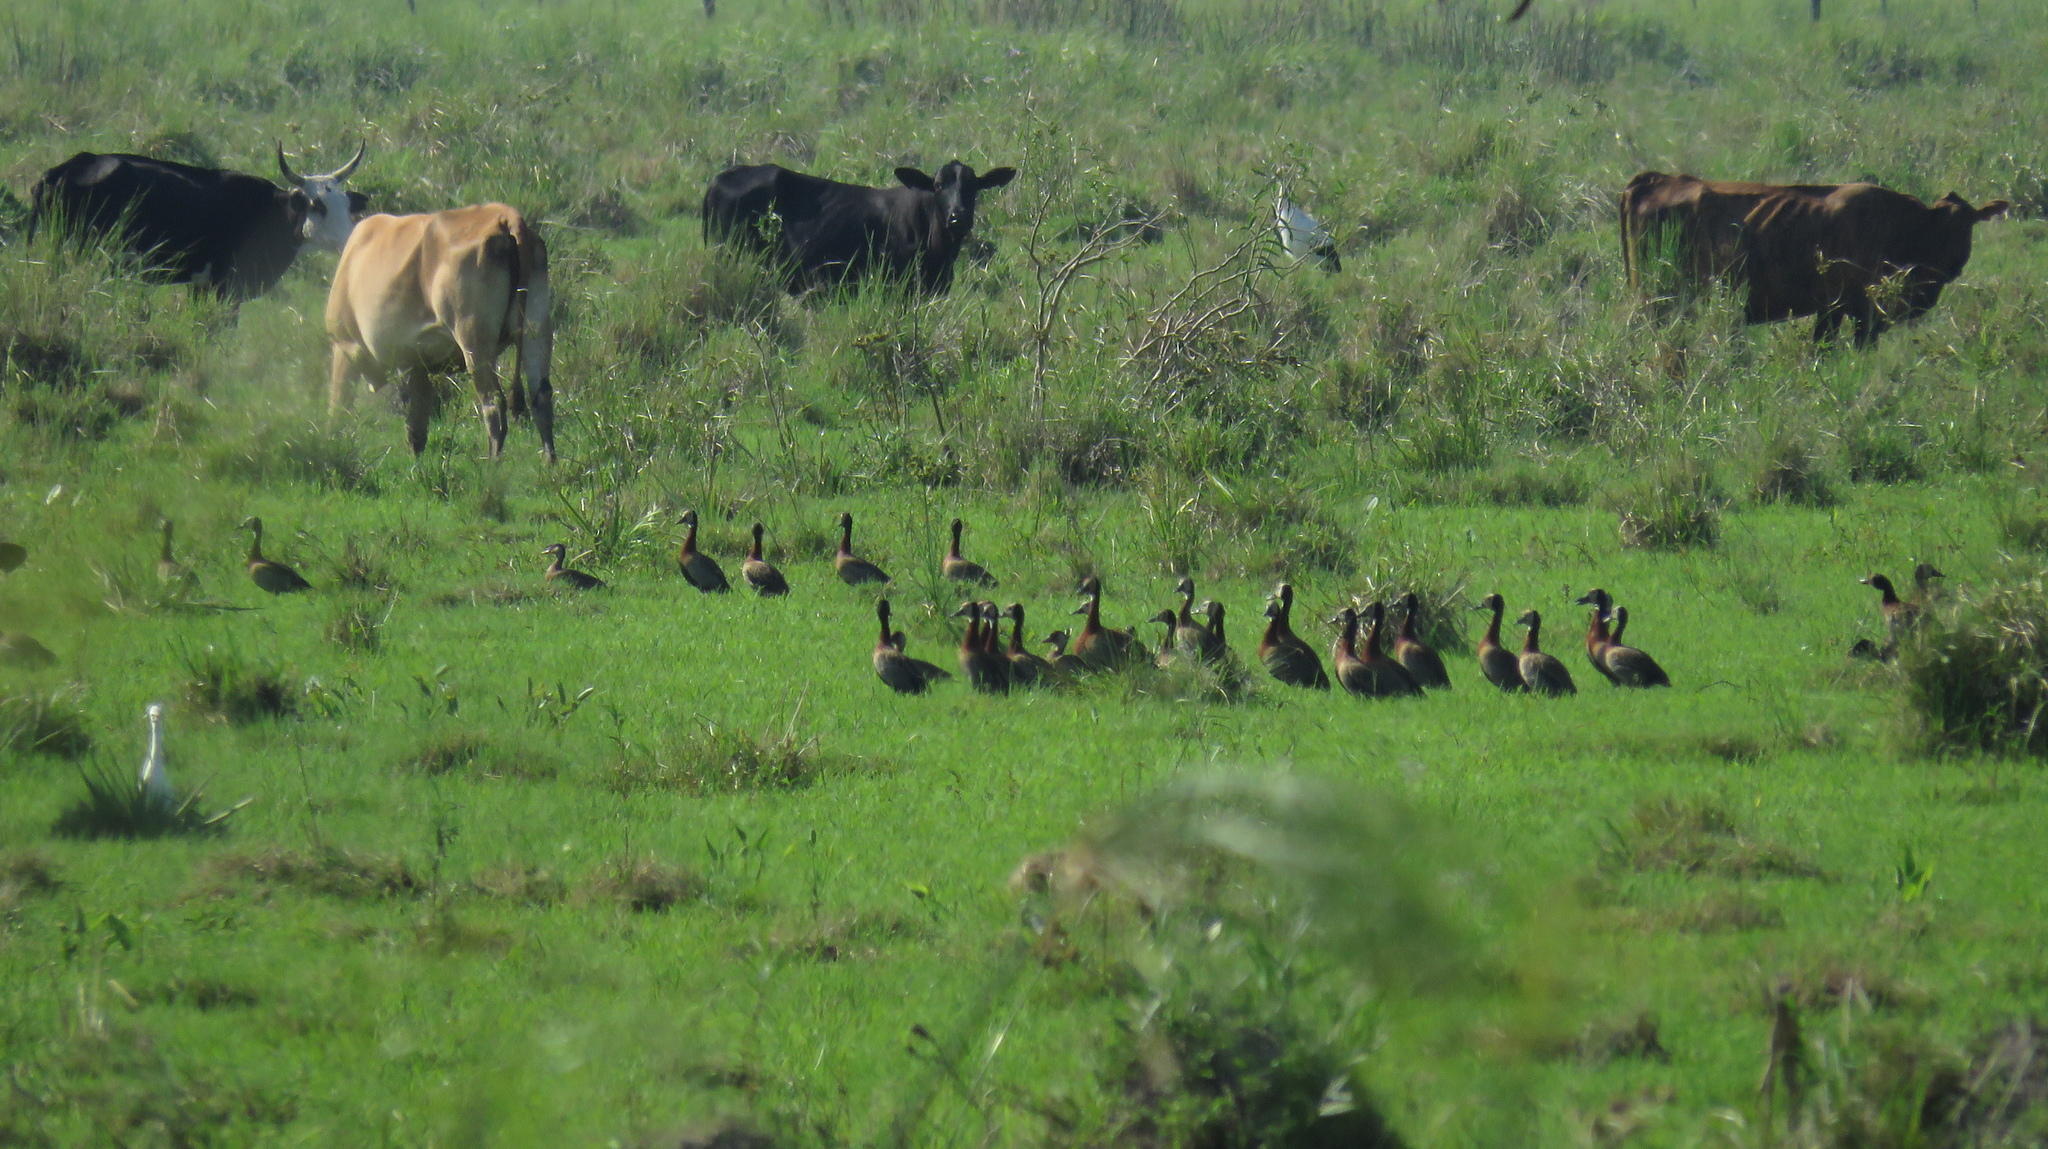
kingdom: Animalia
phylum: Chordata
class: Aves
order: Anseriformes
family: Anatidae
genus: Dendrocygna
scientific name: Dendrocygna viduata
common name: White-faced whistling duck
